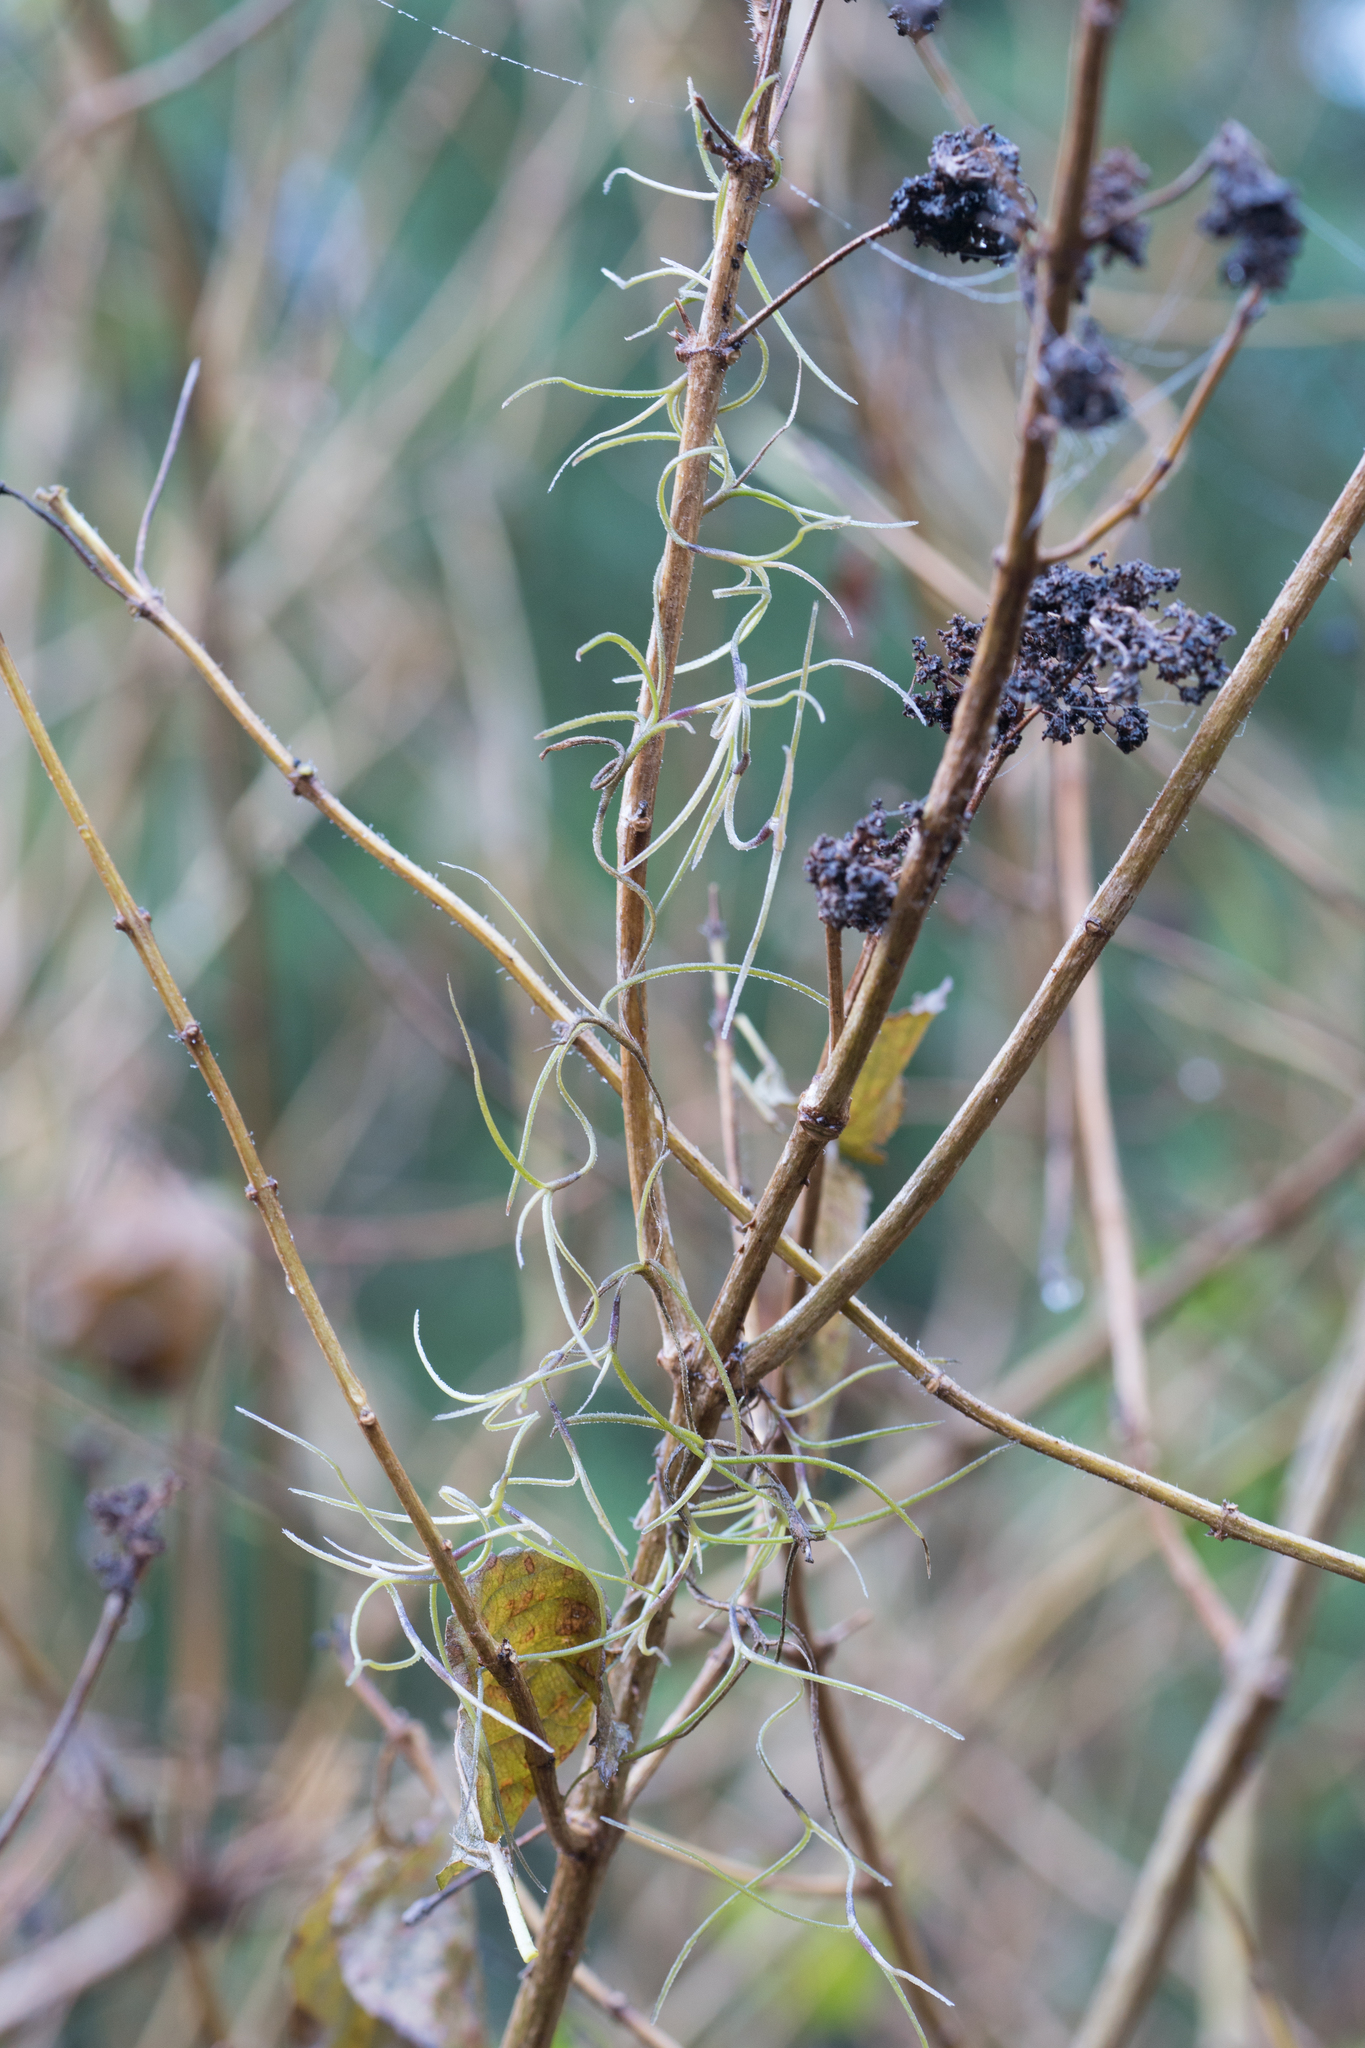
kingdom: Plantae
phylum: Tracheophyta
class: Liliopsida
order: Poales
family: Bromeliaceae
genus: Tillandsia
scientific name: Tillandsia usneoides
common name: Spanish moss
